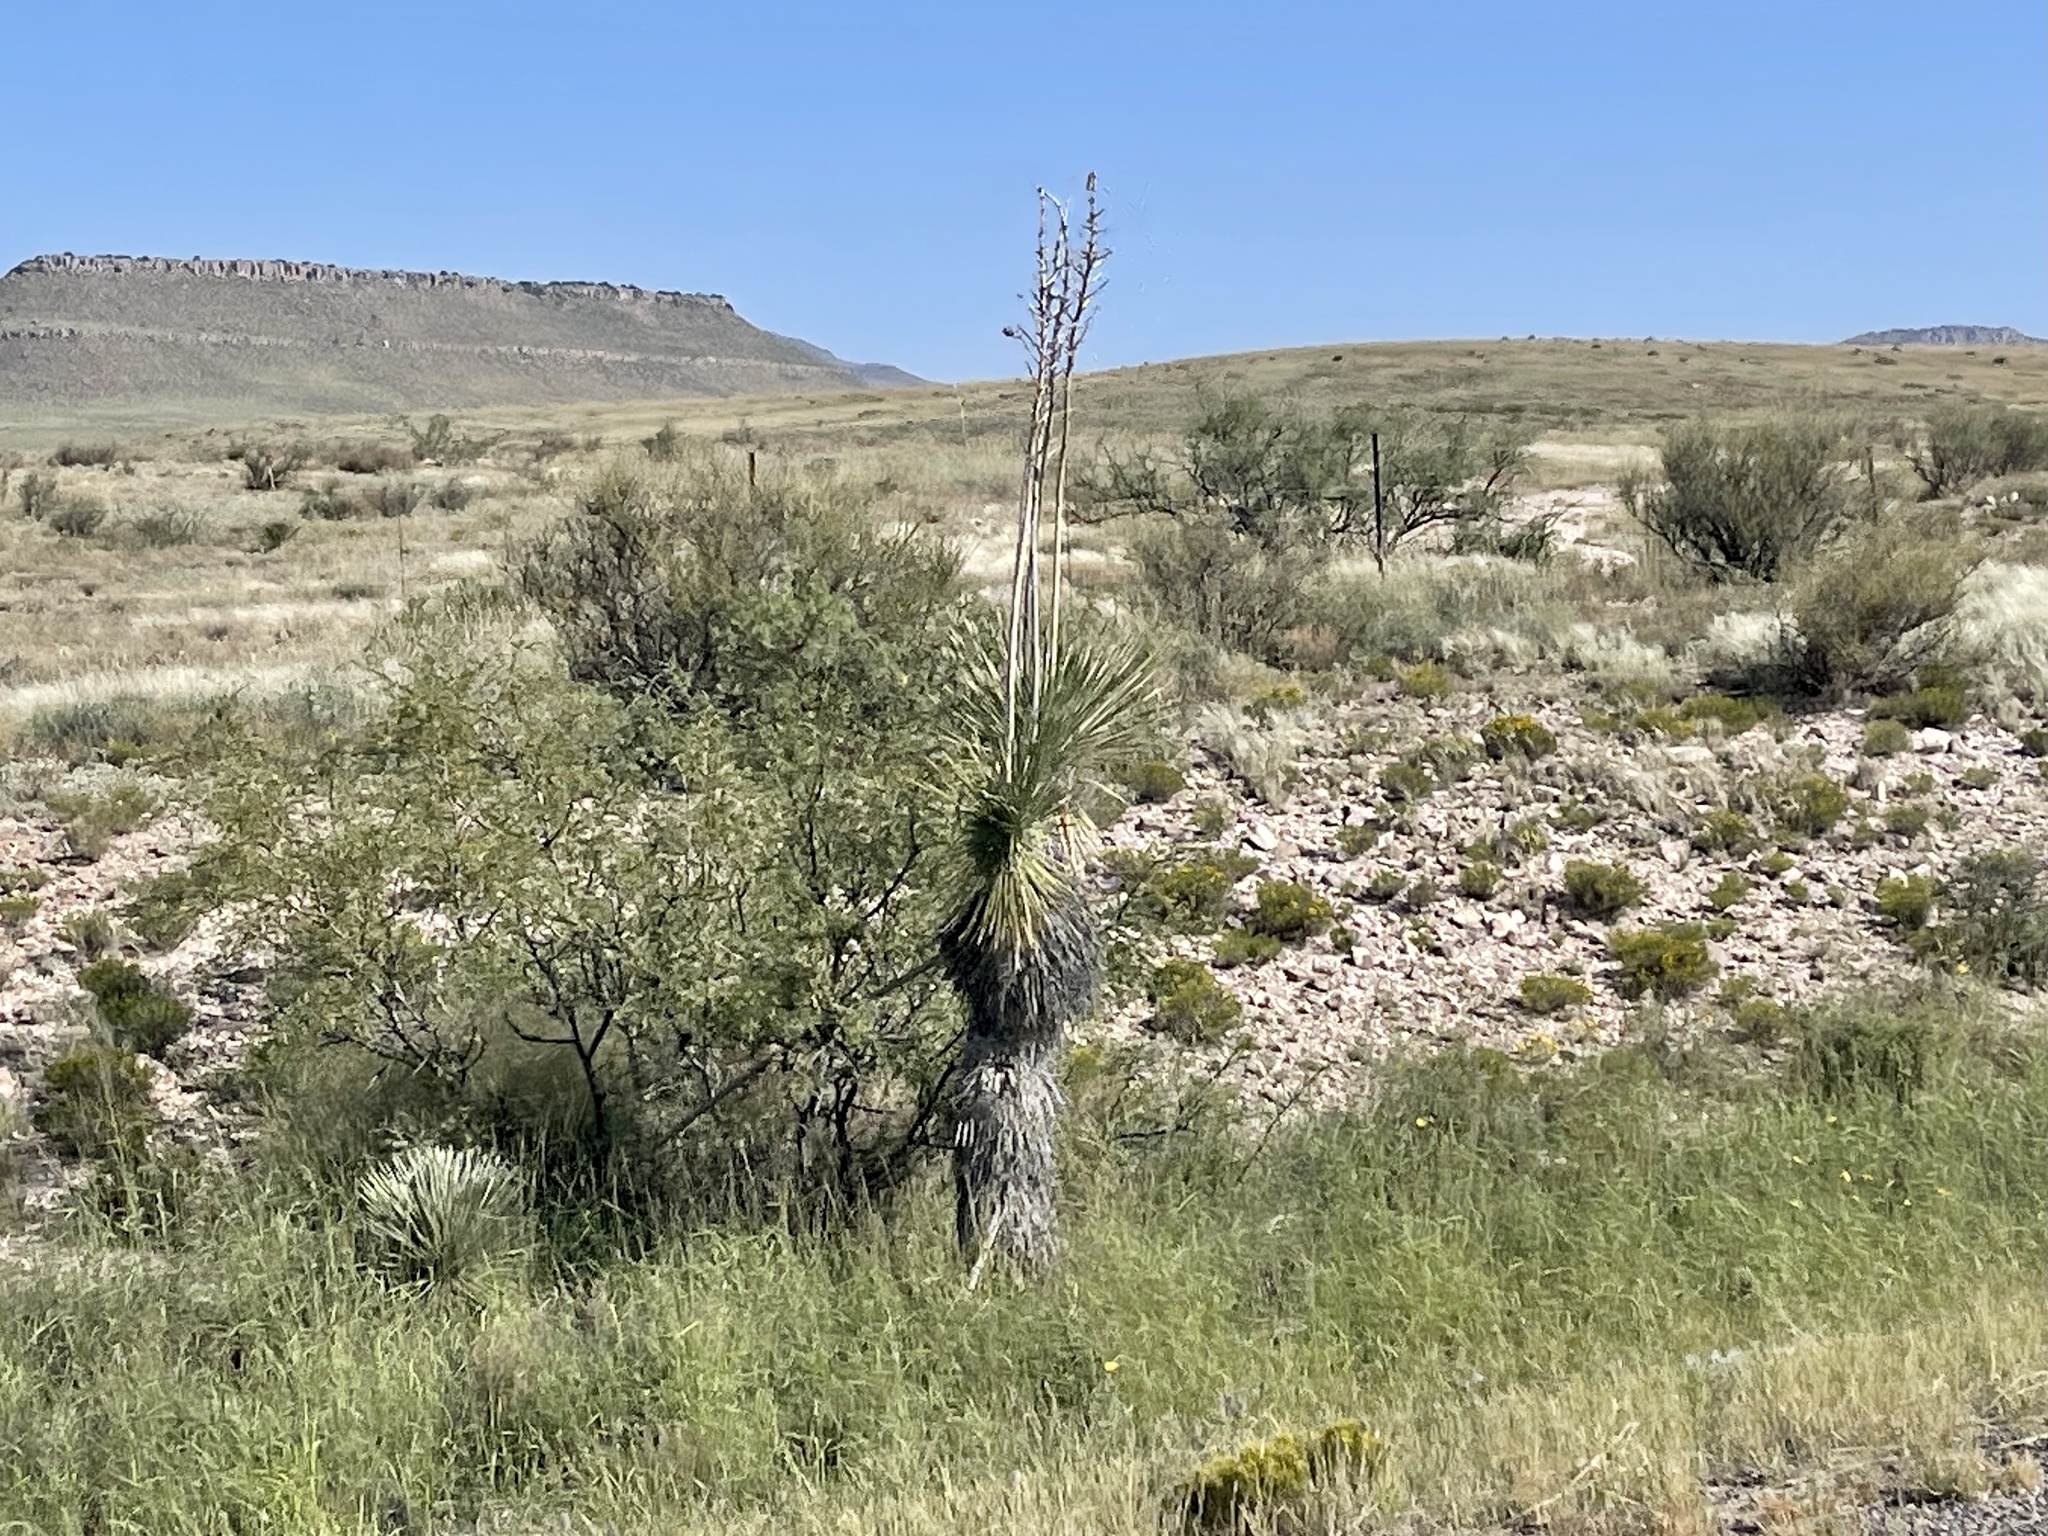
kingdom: Plantae
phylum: Tracheophyta
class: Liliopsida
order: Asparagales
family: Asparagaceae
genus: Yucca
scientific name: Yucca elata
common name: Palmella
